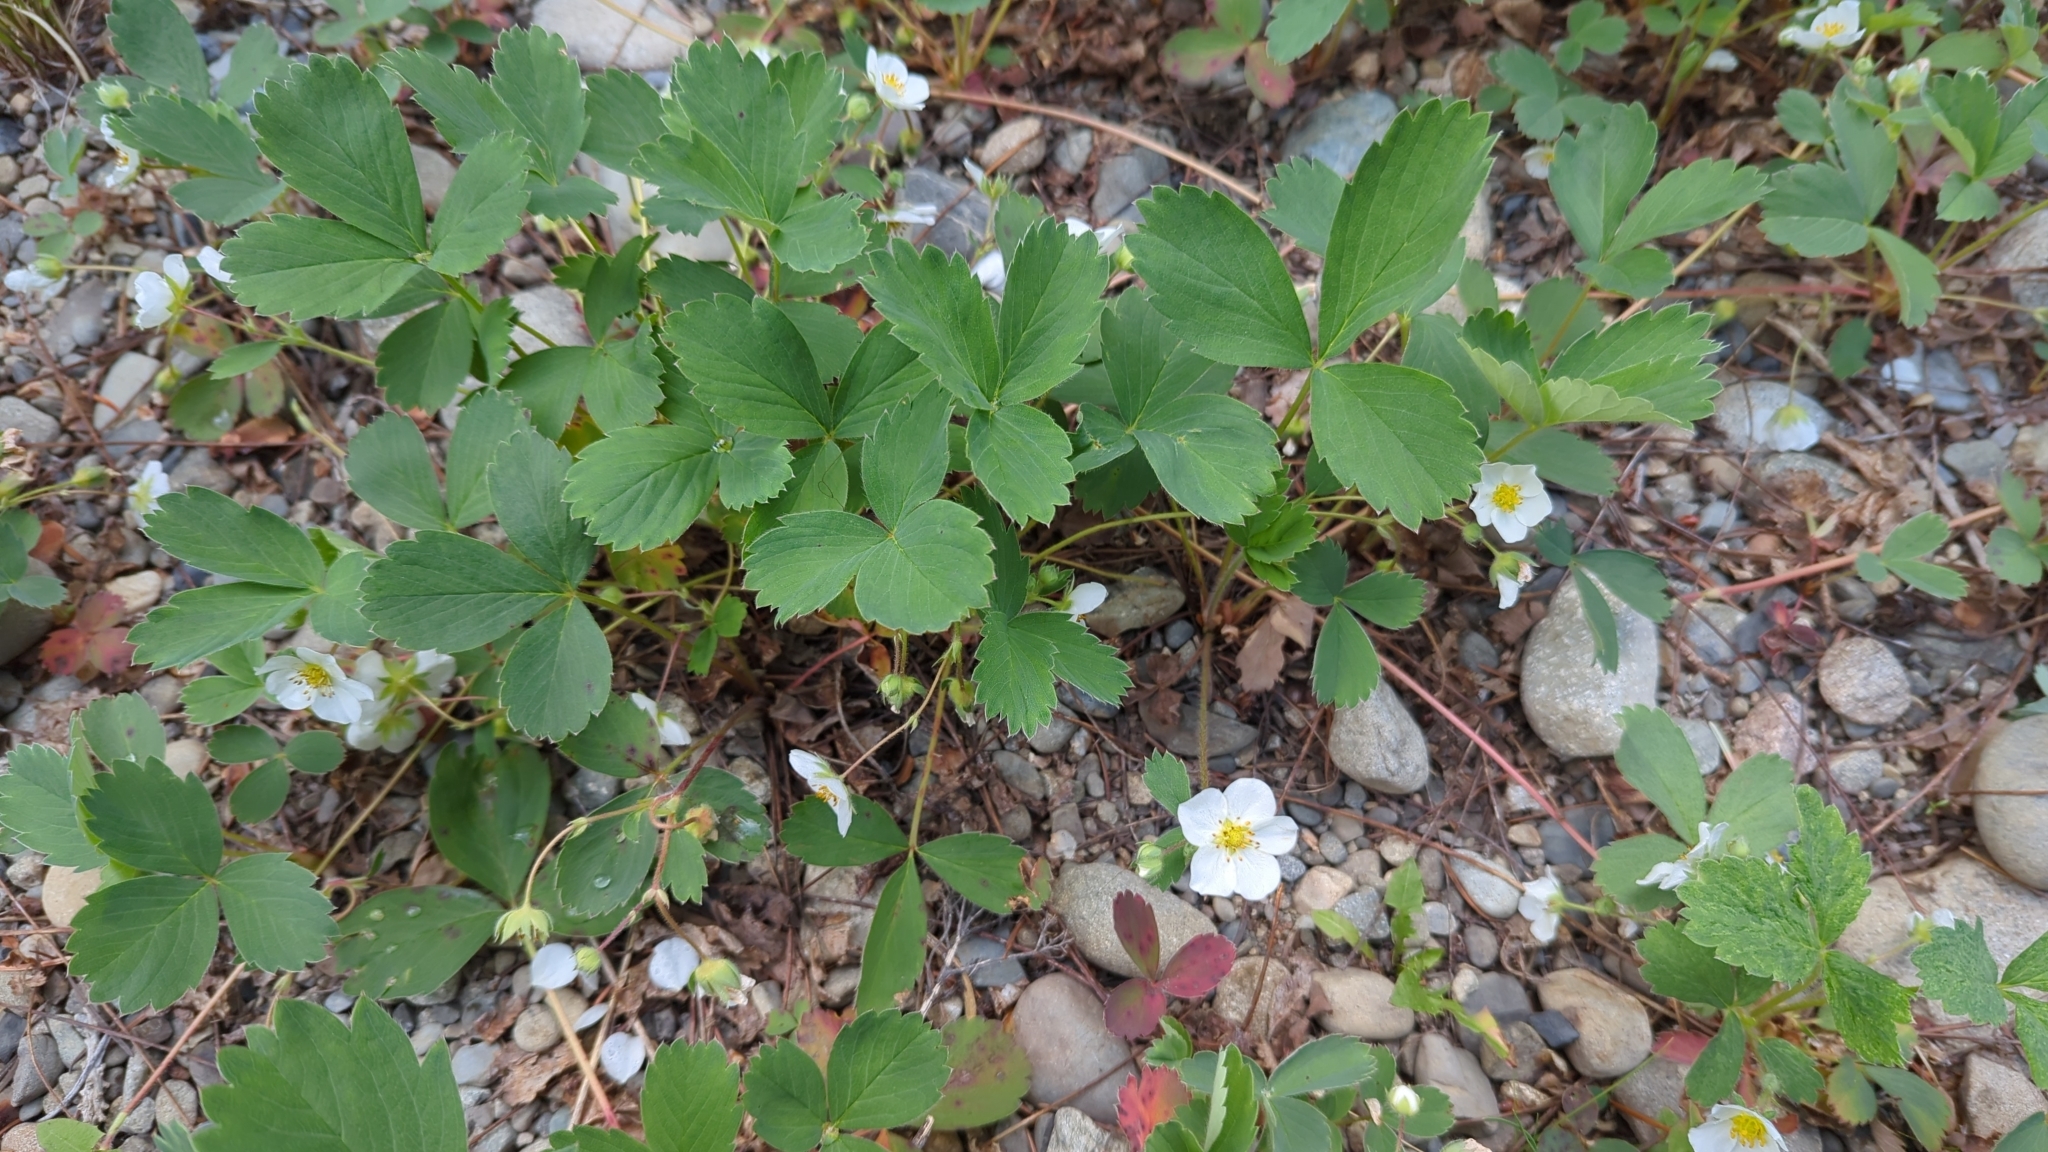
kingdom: Plantae
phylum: Tracheophyta
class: Magnoliopsida
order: Rosales
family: Rosaceae
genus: Fragaria
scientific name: Fragaria virginiana
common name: Thickleaved wild strawberry
